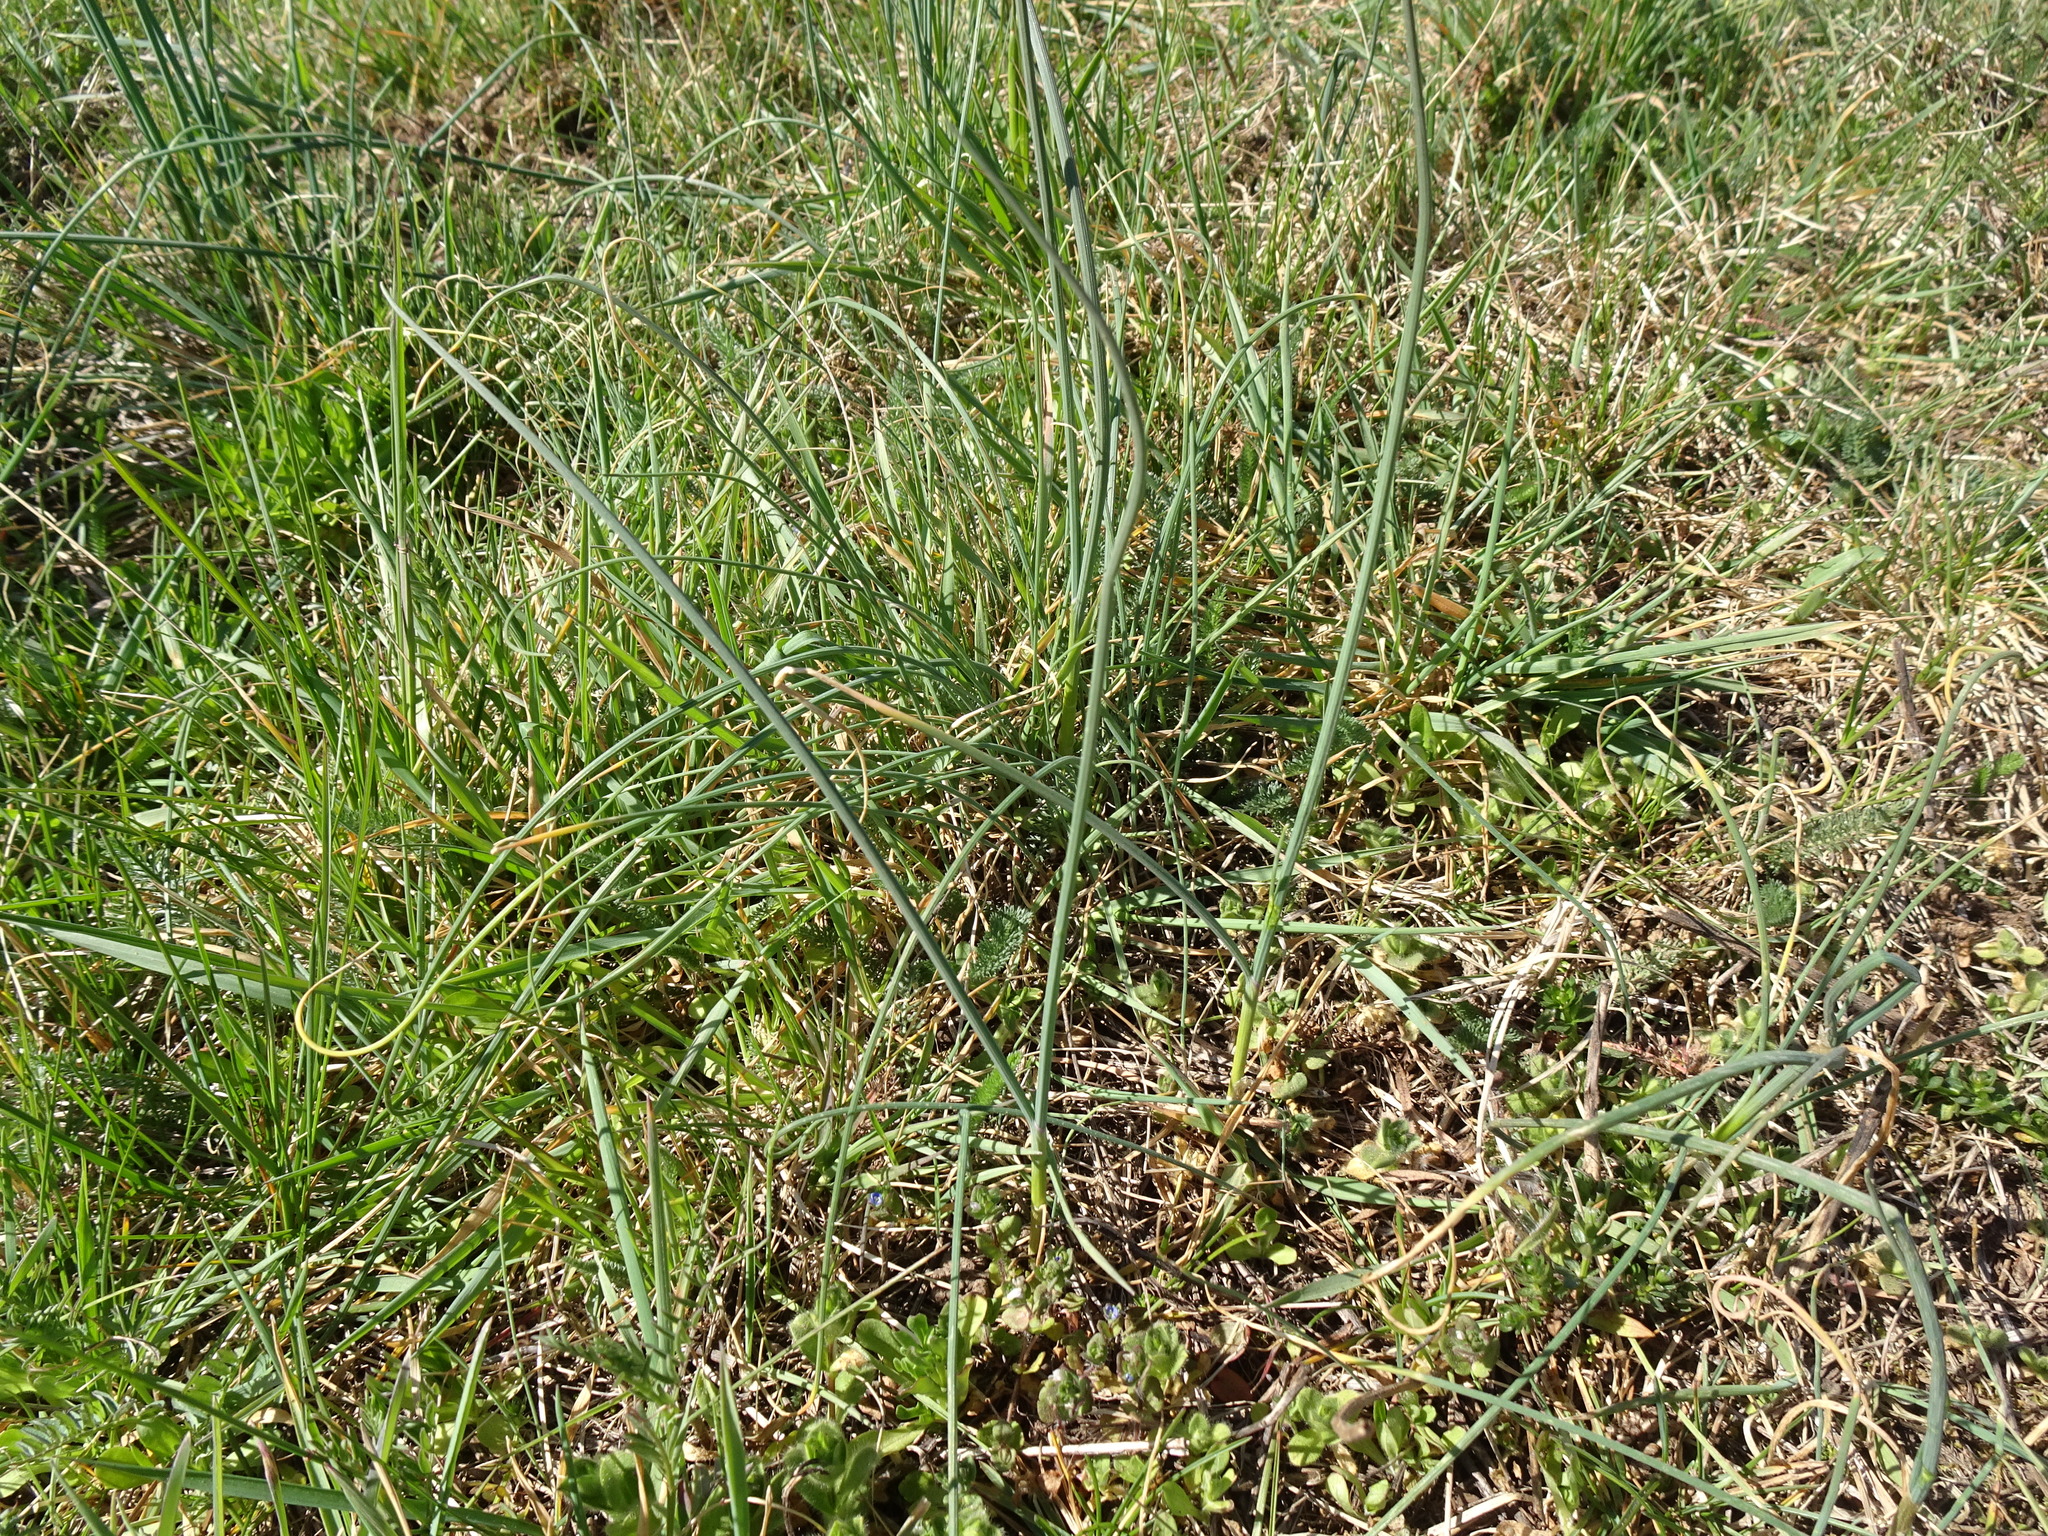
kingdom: Plantae
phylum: Tracheophyta
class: Liliopsida
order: Asparagales
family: Amaryllidaceae
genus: Allium
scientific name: Allium vineale
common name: Crow garlic
